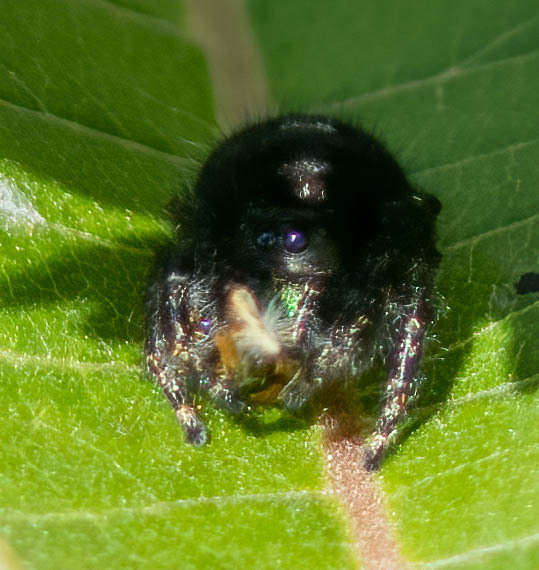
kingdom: Animalia
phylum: Arthropoda
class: Arachnida
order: Araneae
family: Salticidae
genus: Phidippus
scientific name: Phidippus audax
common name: Bold jumper
